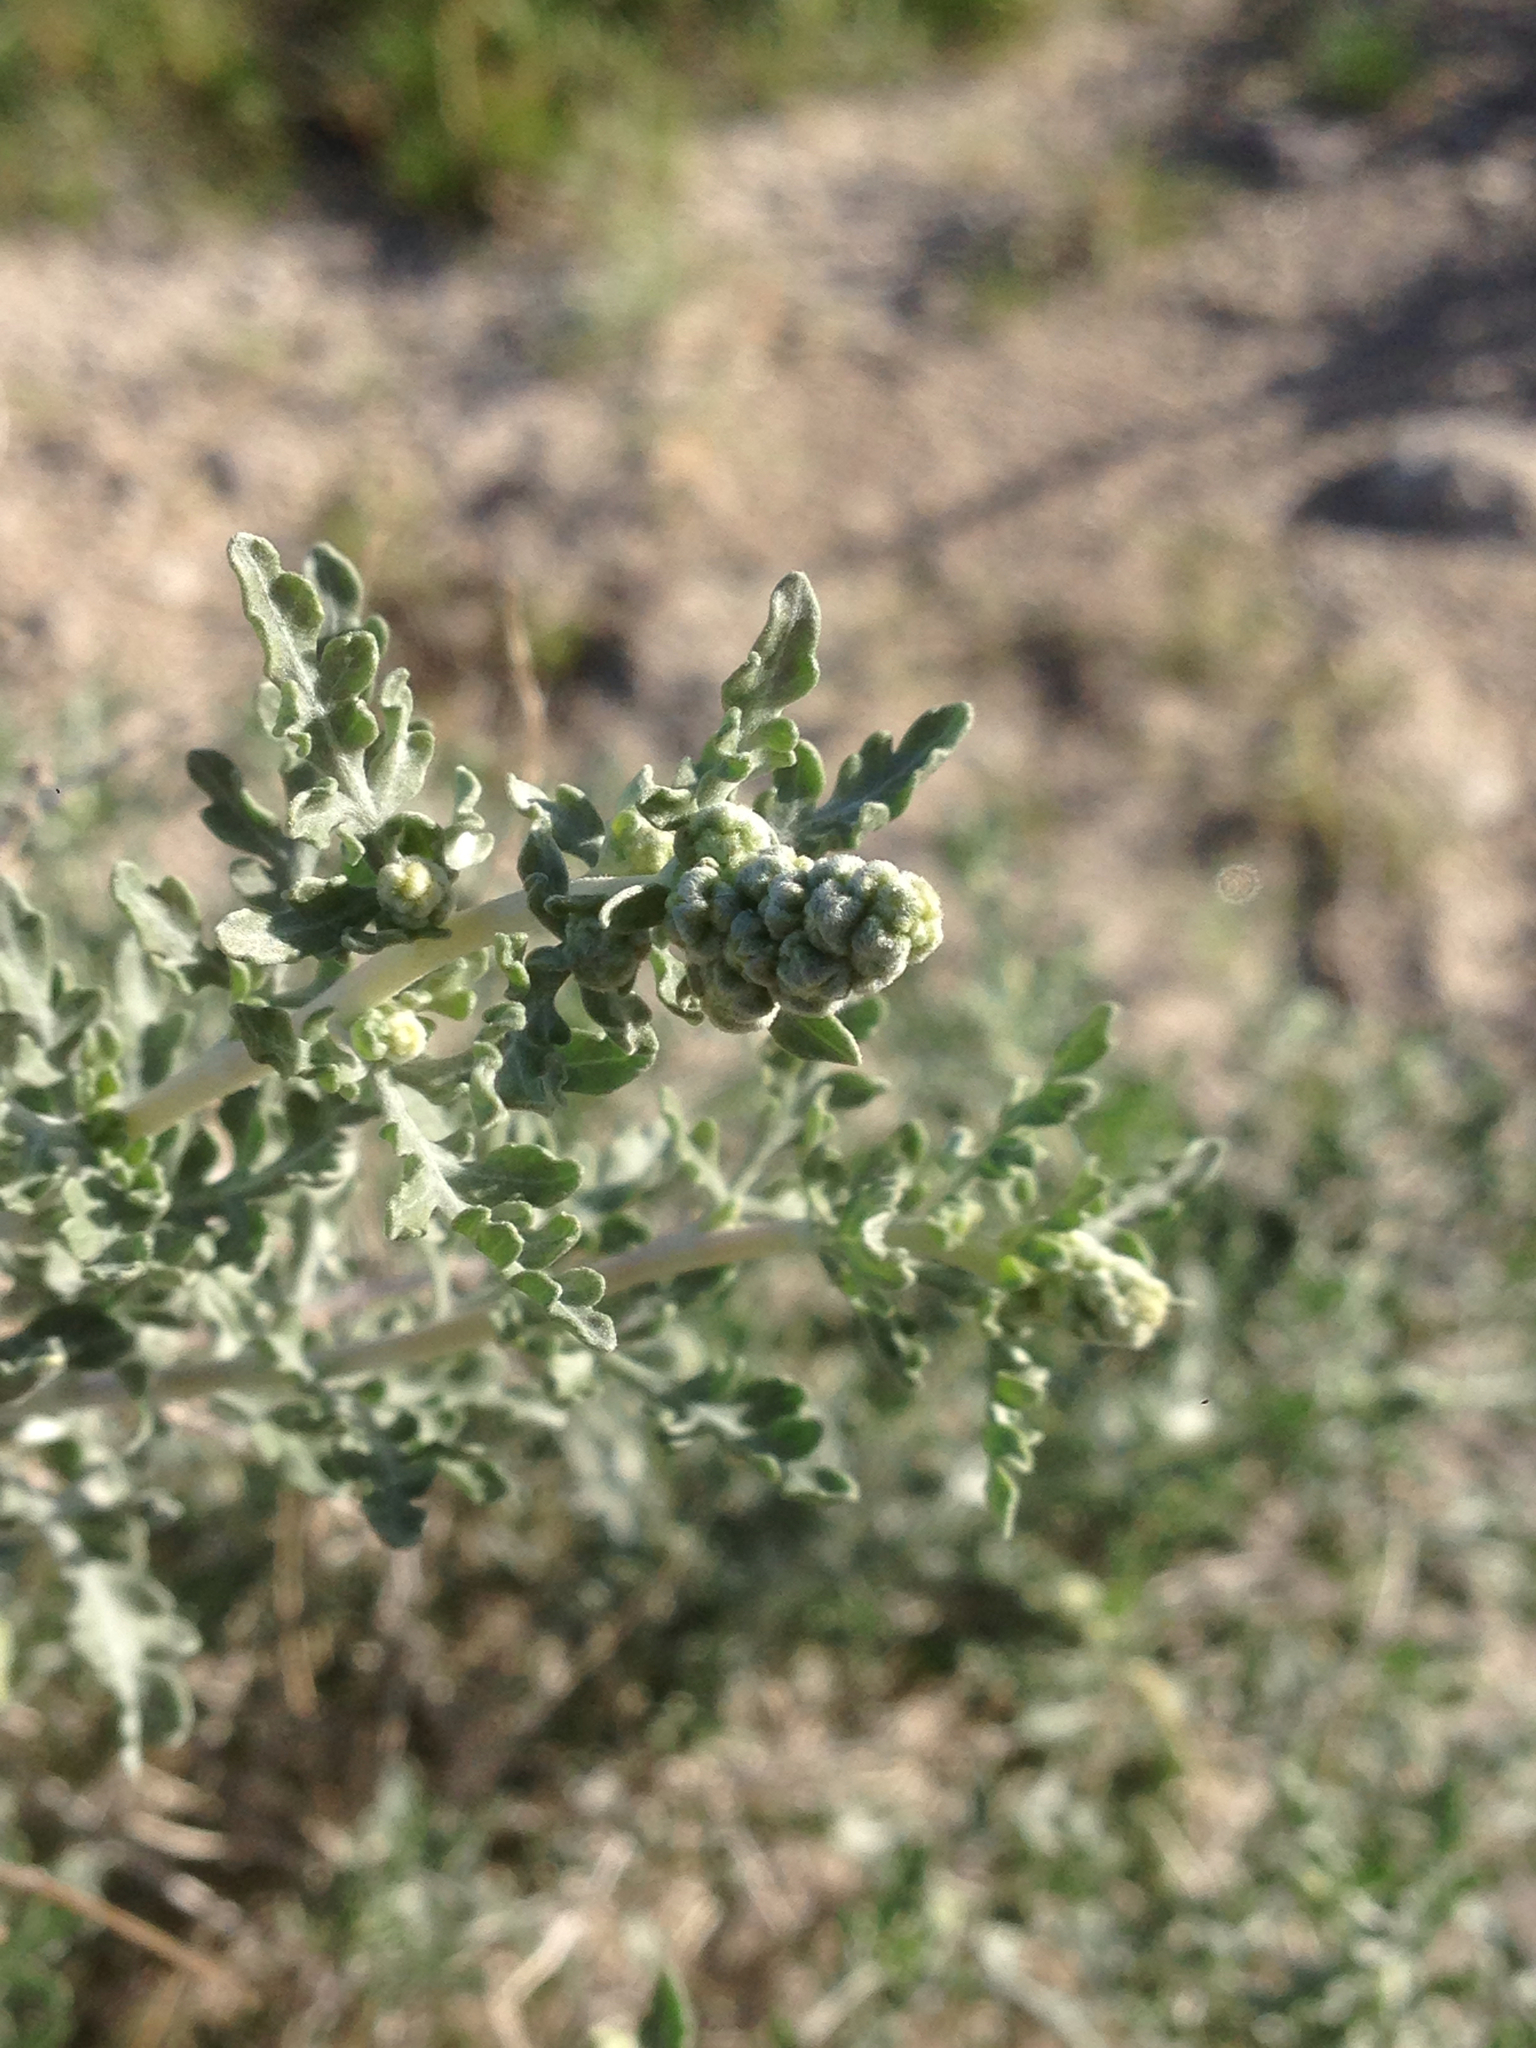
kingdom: Plantae
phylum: Tracheophyta
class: Magnoliopsida
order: Asterales
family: Asteraceae
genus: Ambrosia
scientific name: Ambrosia dumosa
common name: Bur-sage
